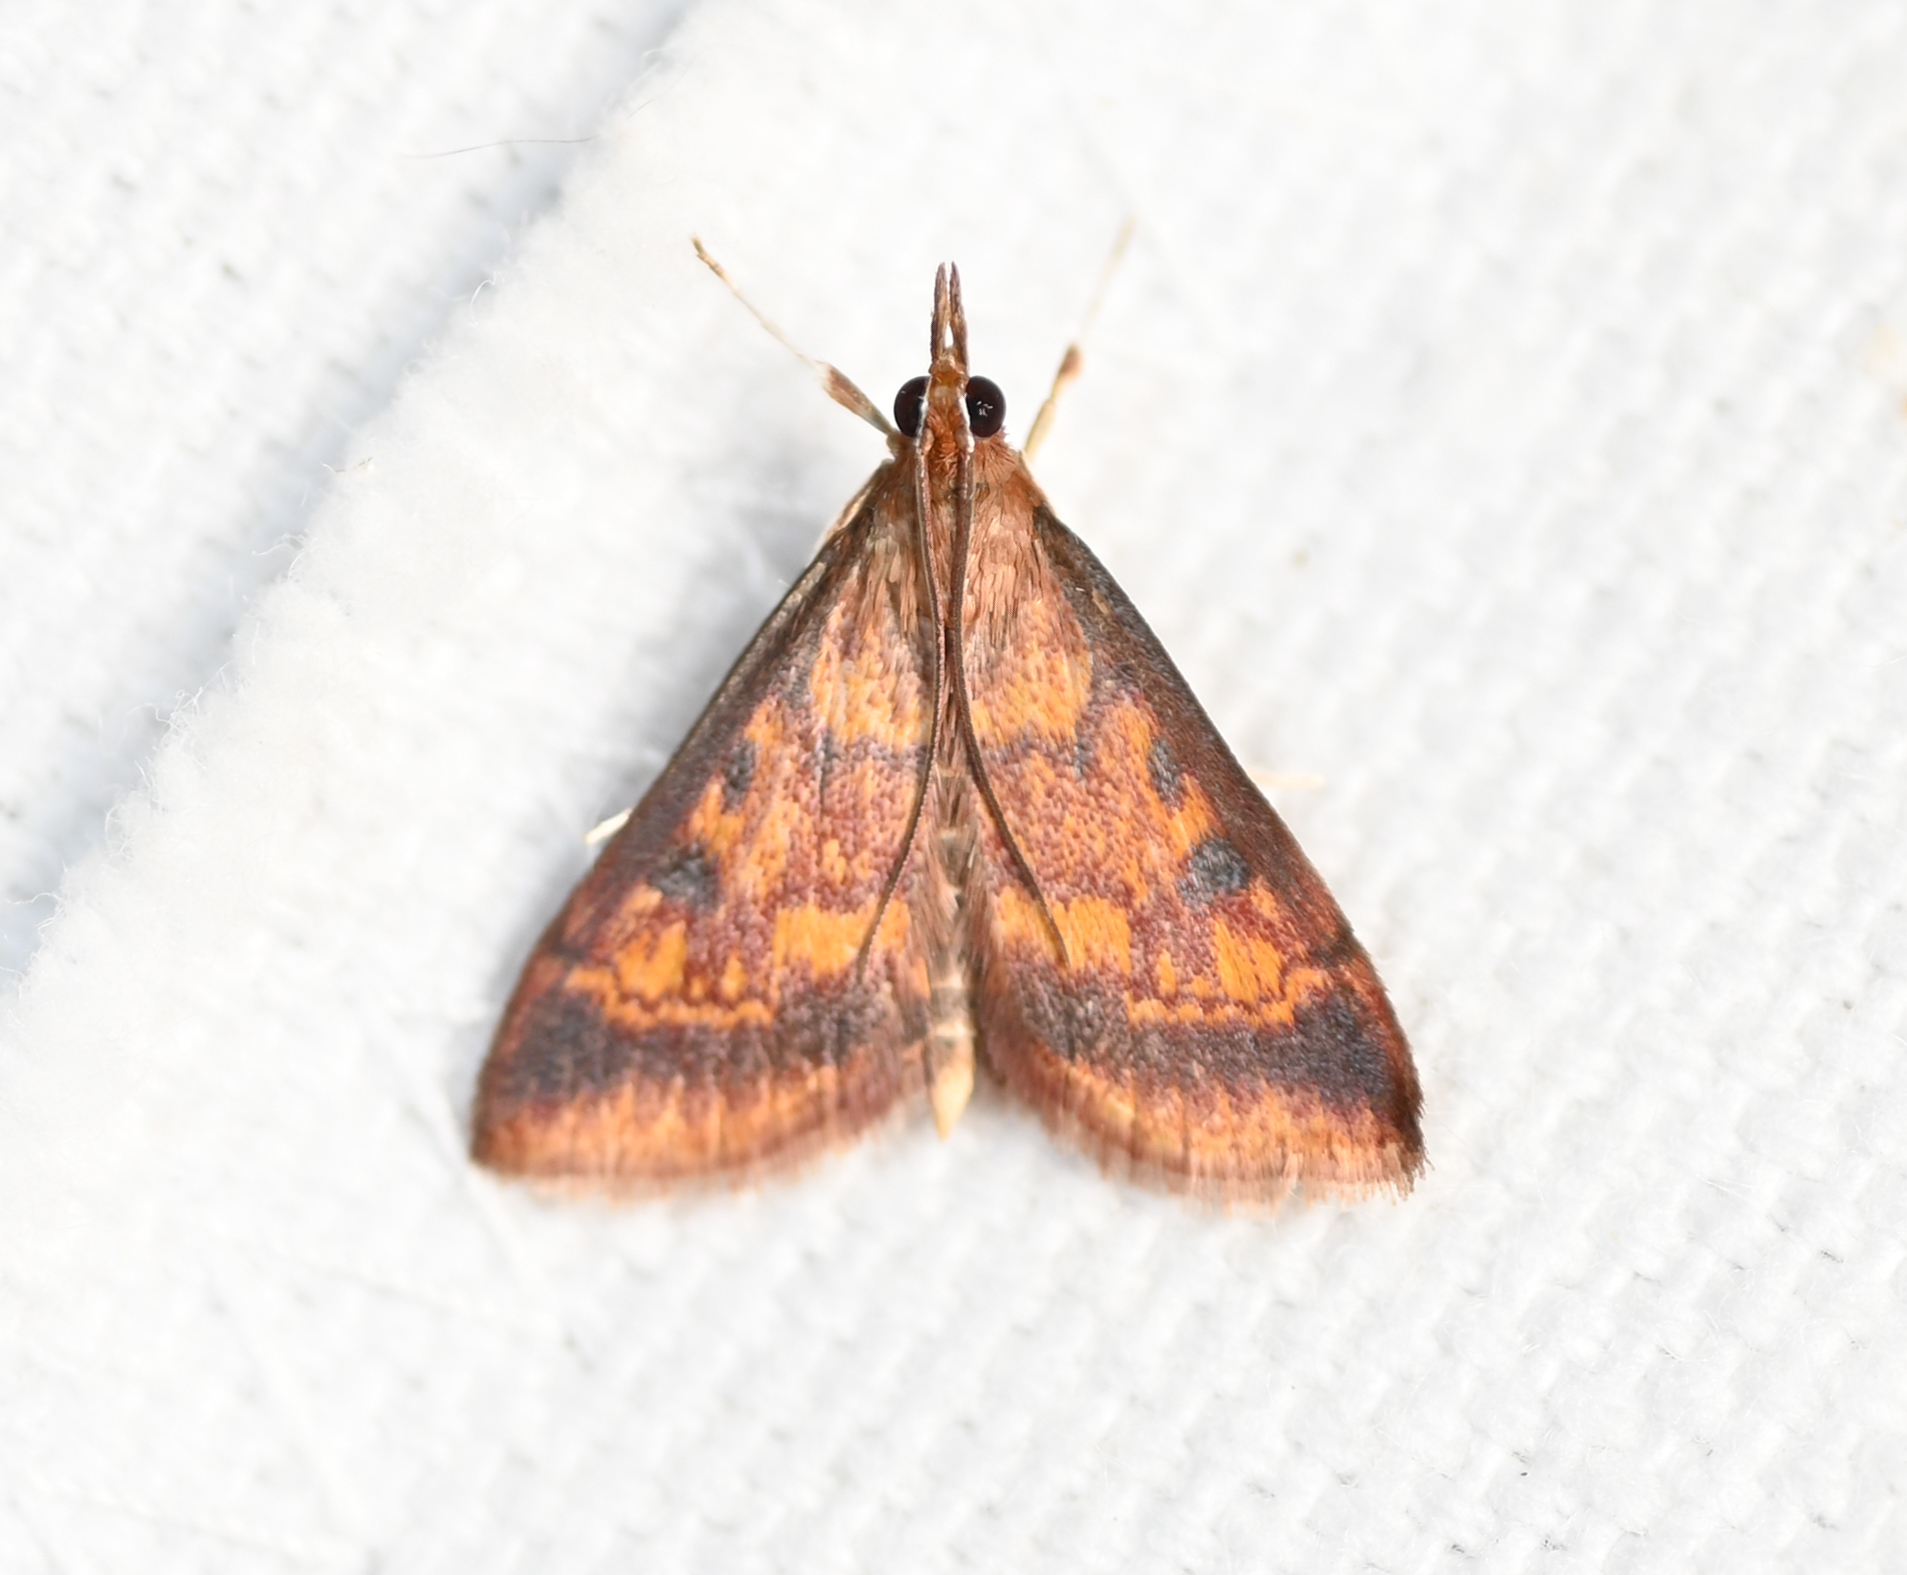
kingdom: Animalia
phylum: Arthropoda
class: Insecta
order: Lepidoptera
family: Crambidae
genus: Pyrausta
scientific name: Pyrausta acrionalis
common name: Mint-loving pyrausta moth
